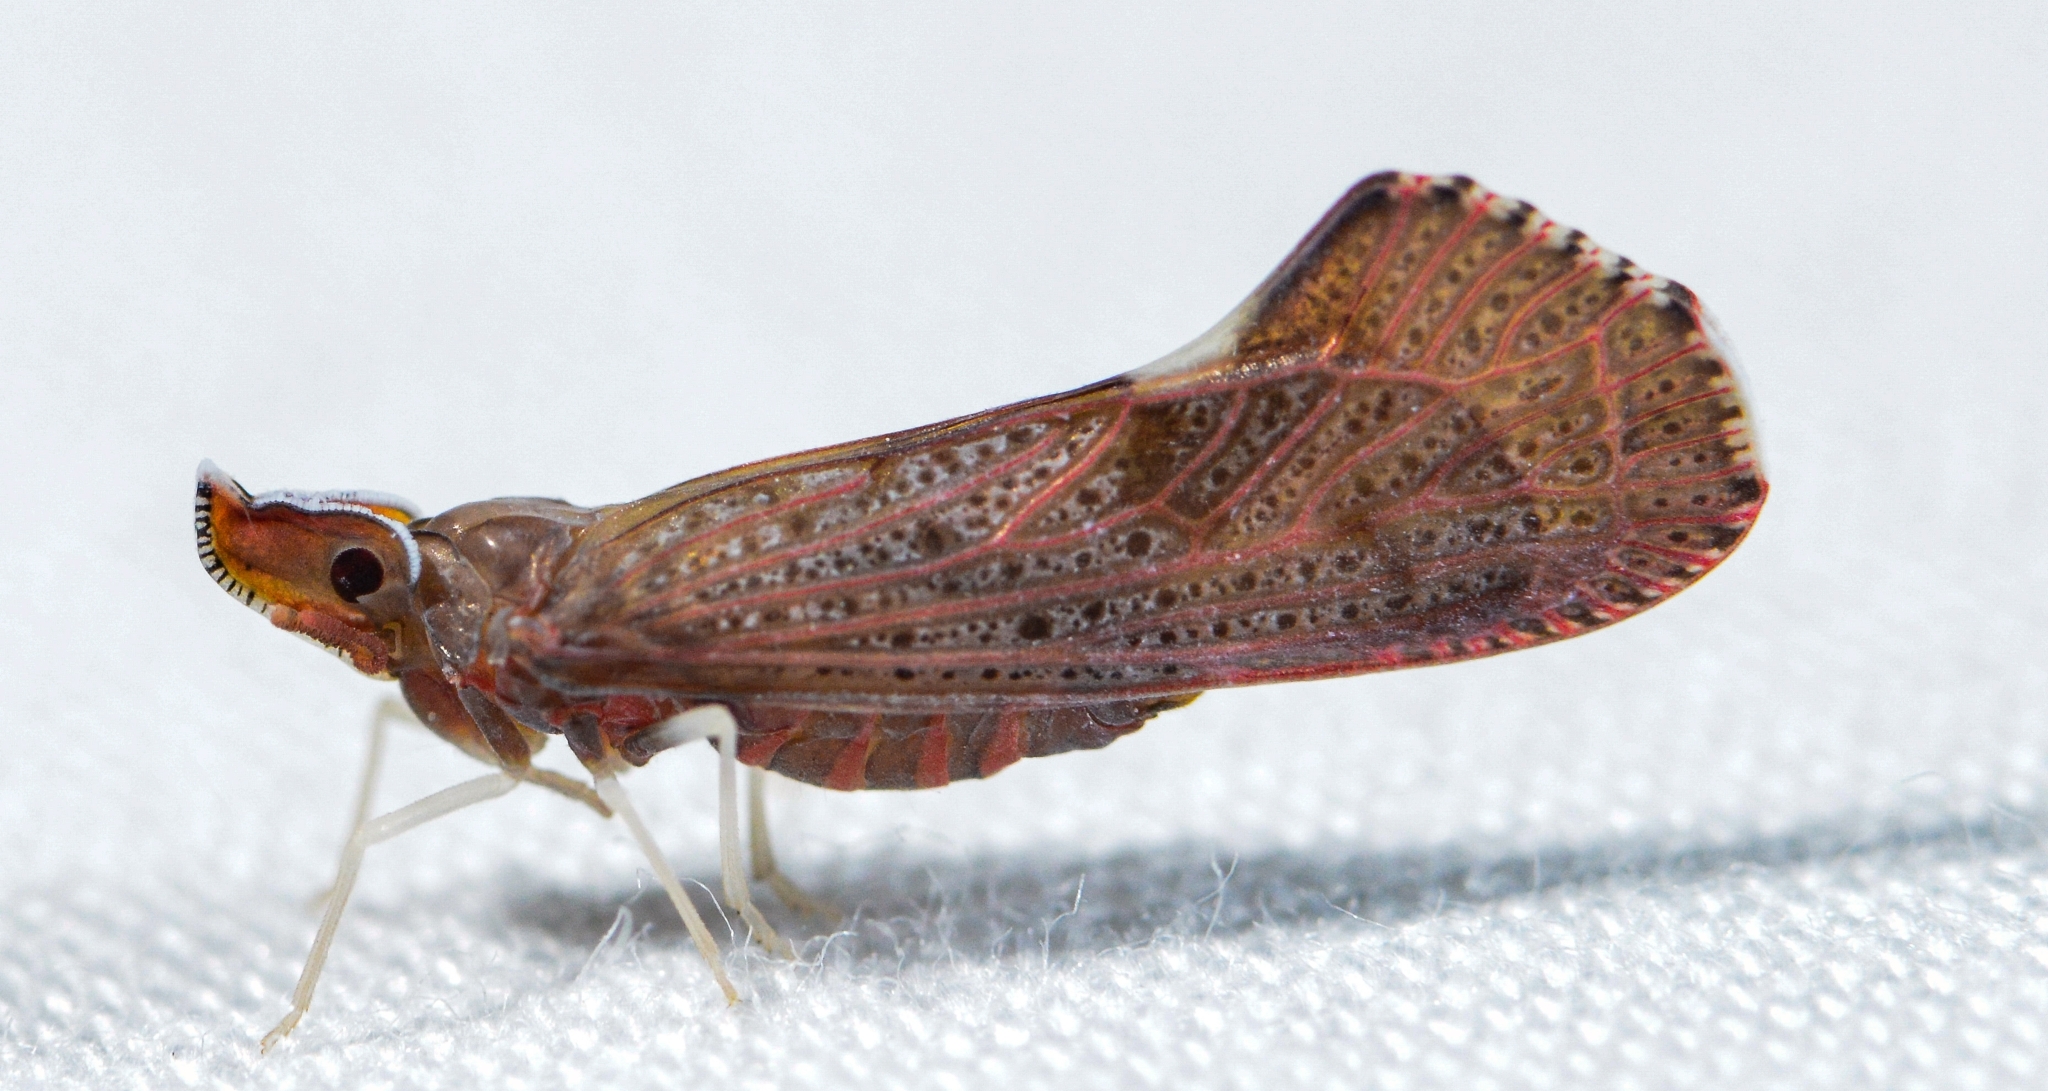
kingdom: Animalia
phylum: Arthropoda
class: Insecta
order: Hemiptera
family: Derbidae
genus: Apache
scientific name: Apache degeeri
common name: Red-fanned planthopper
